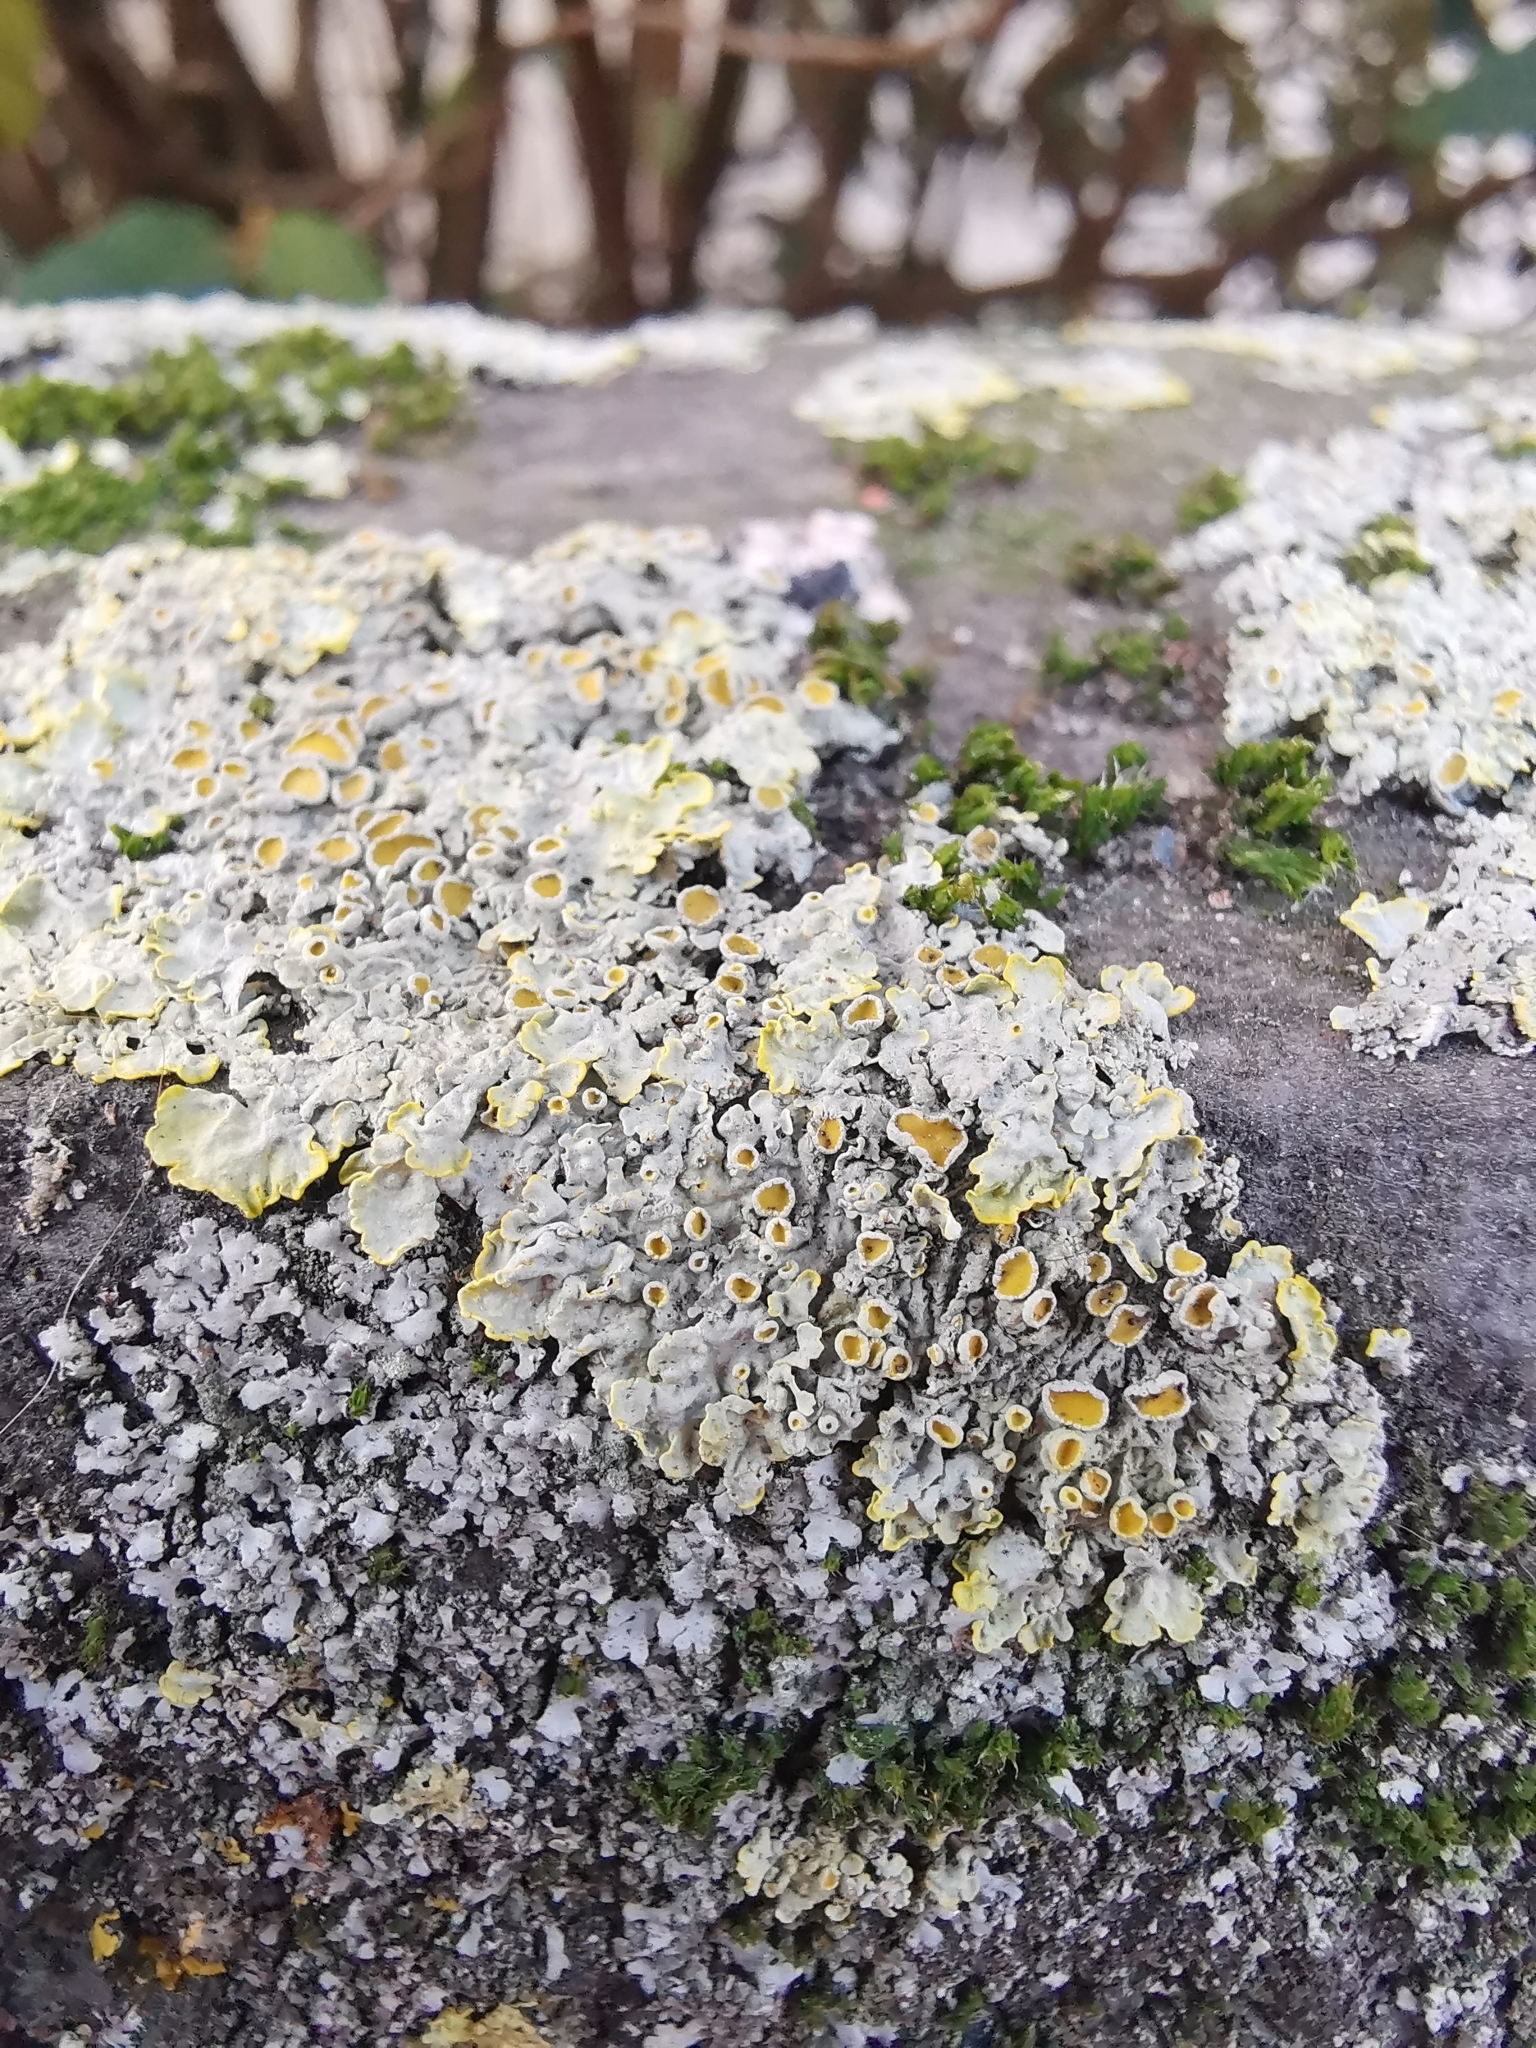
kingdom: Fungi
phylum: Ascomycota
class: Lecanoromycetes
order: Teloschistales
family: Teloschistaceae
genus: Xanthoria
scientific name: Xanthoria parietina
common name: Common orange lichen
